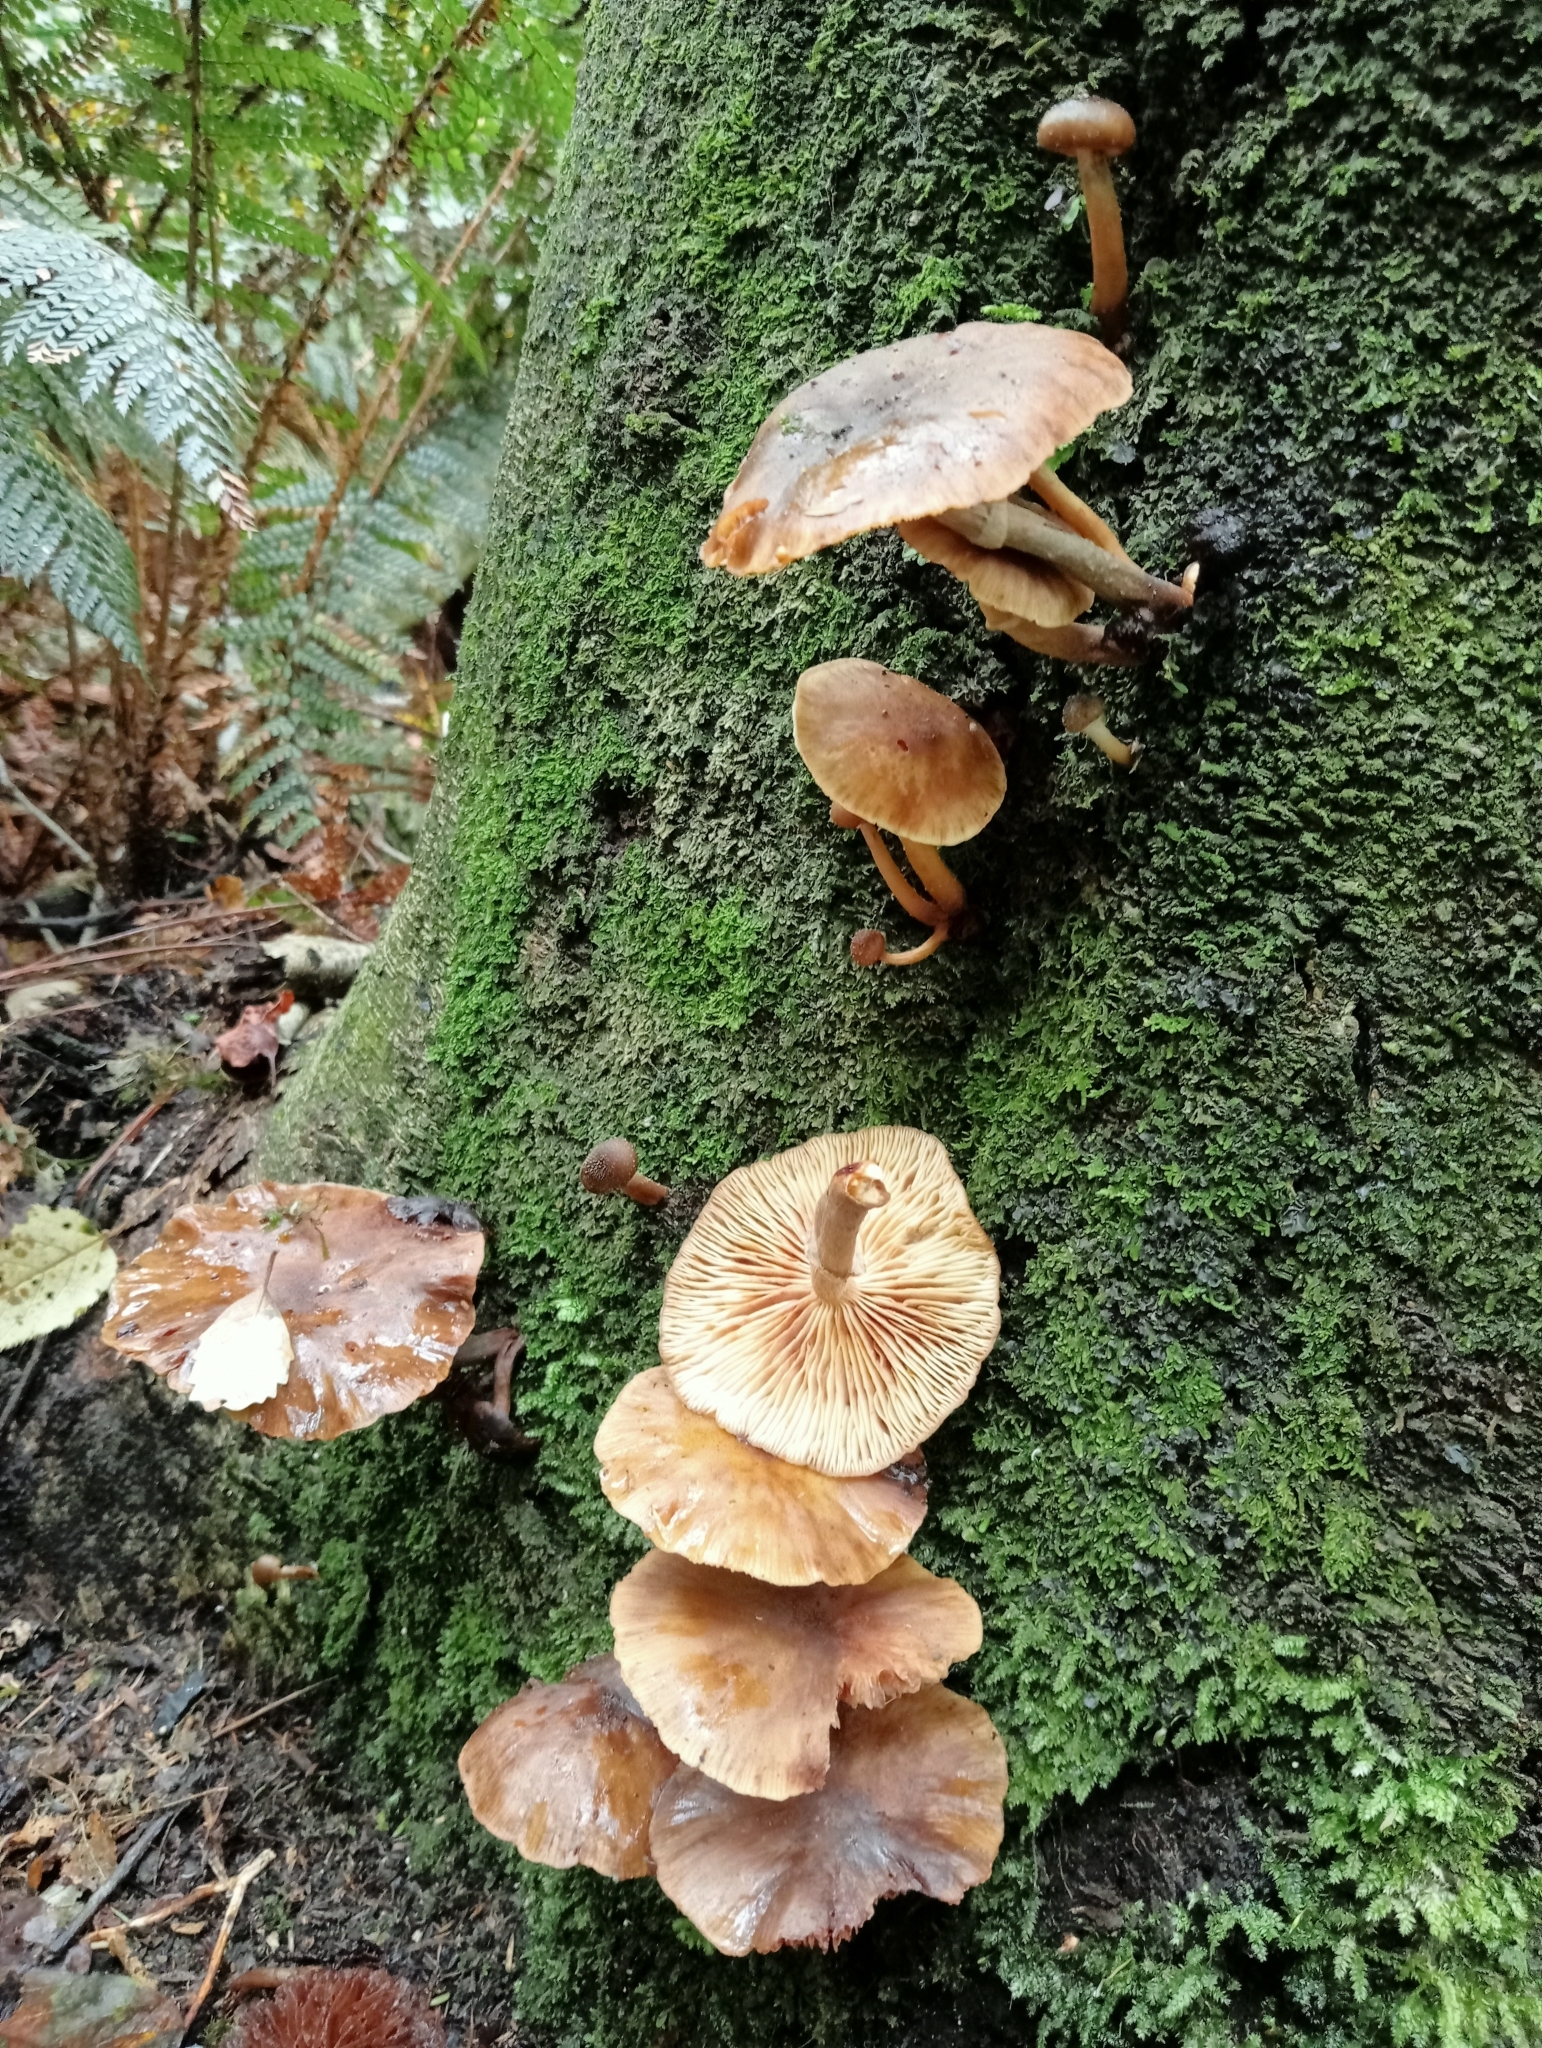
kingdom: Fungi
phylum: Basidiomycota
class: Agaricomycetes
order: Agaricales
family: Physalacriaceae
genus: Armillaria
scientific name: Armillaria novae-zelandiae
